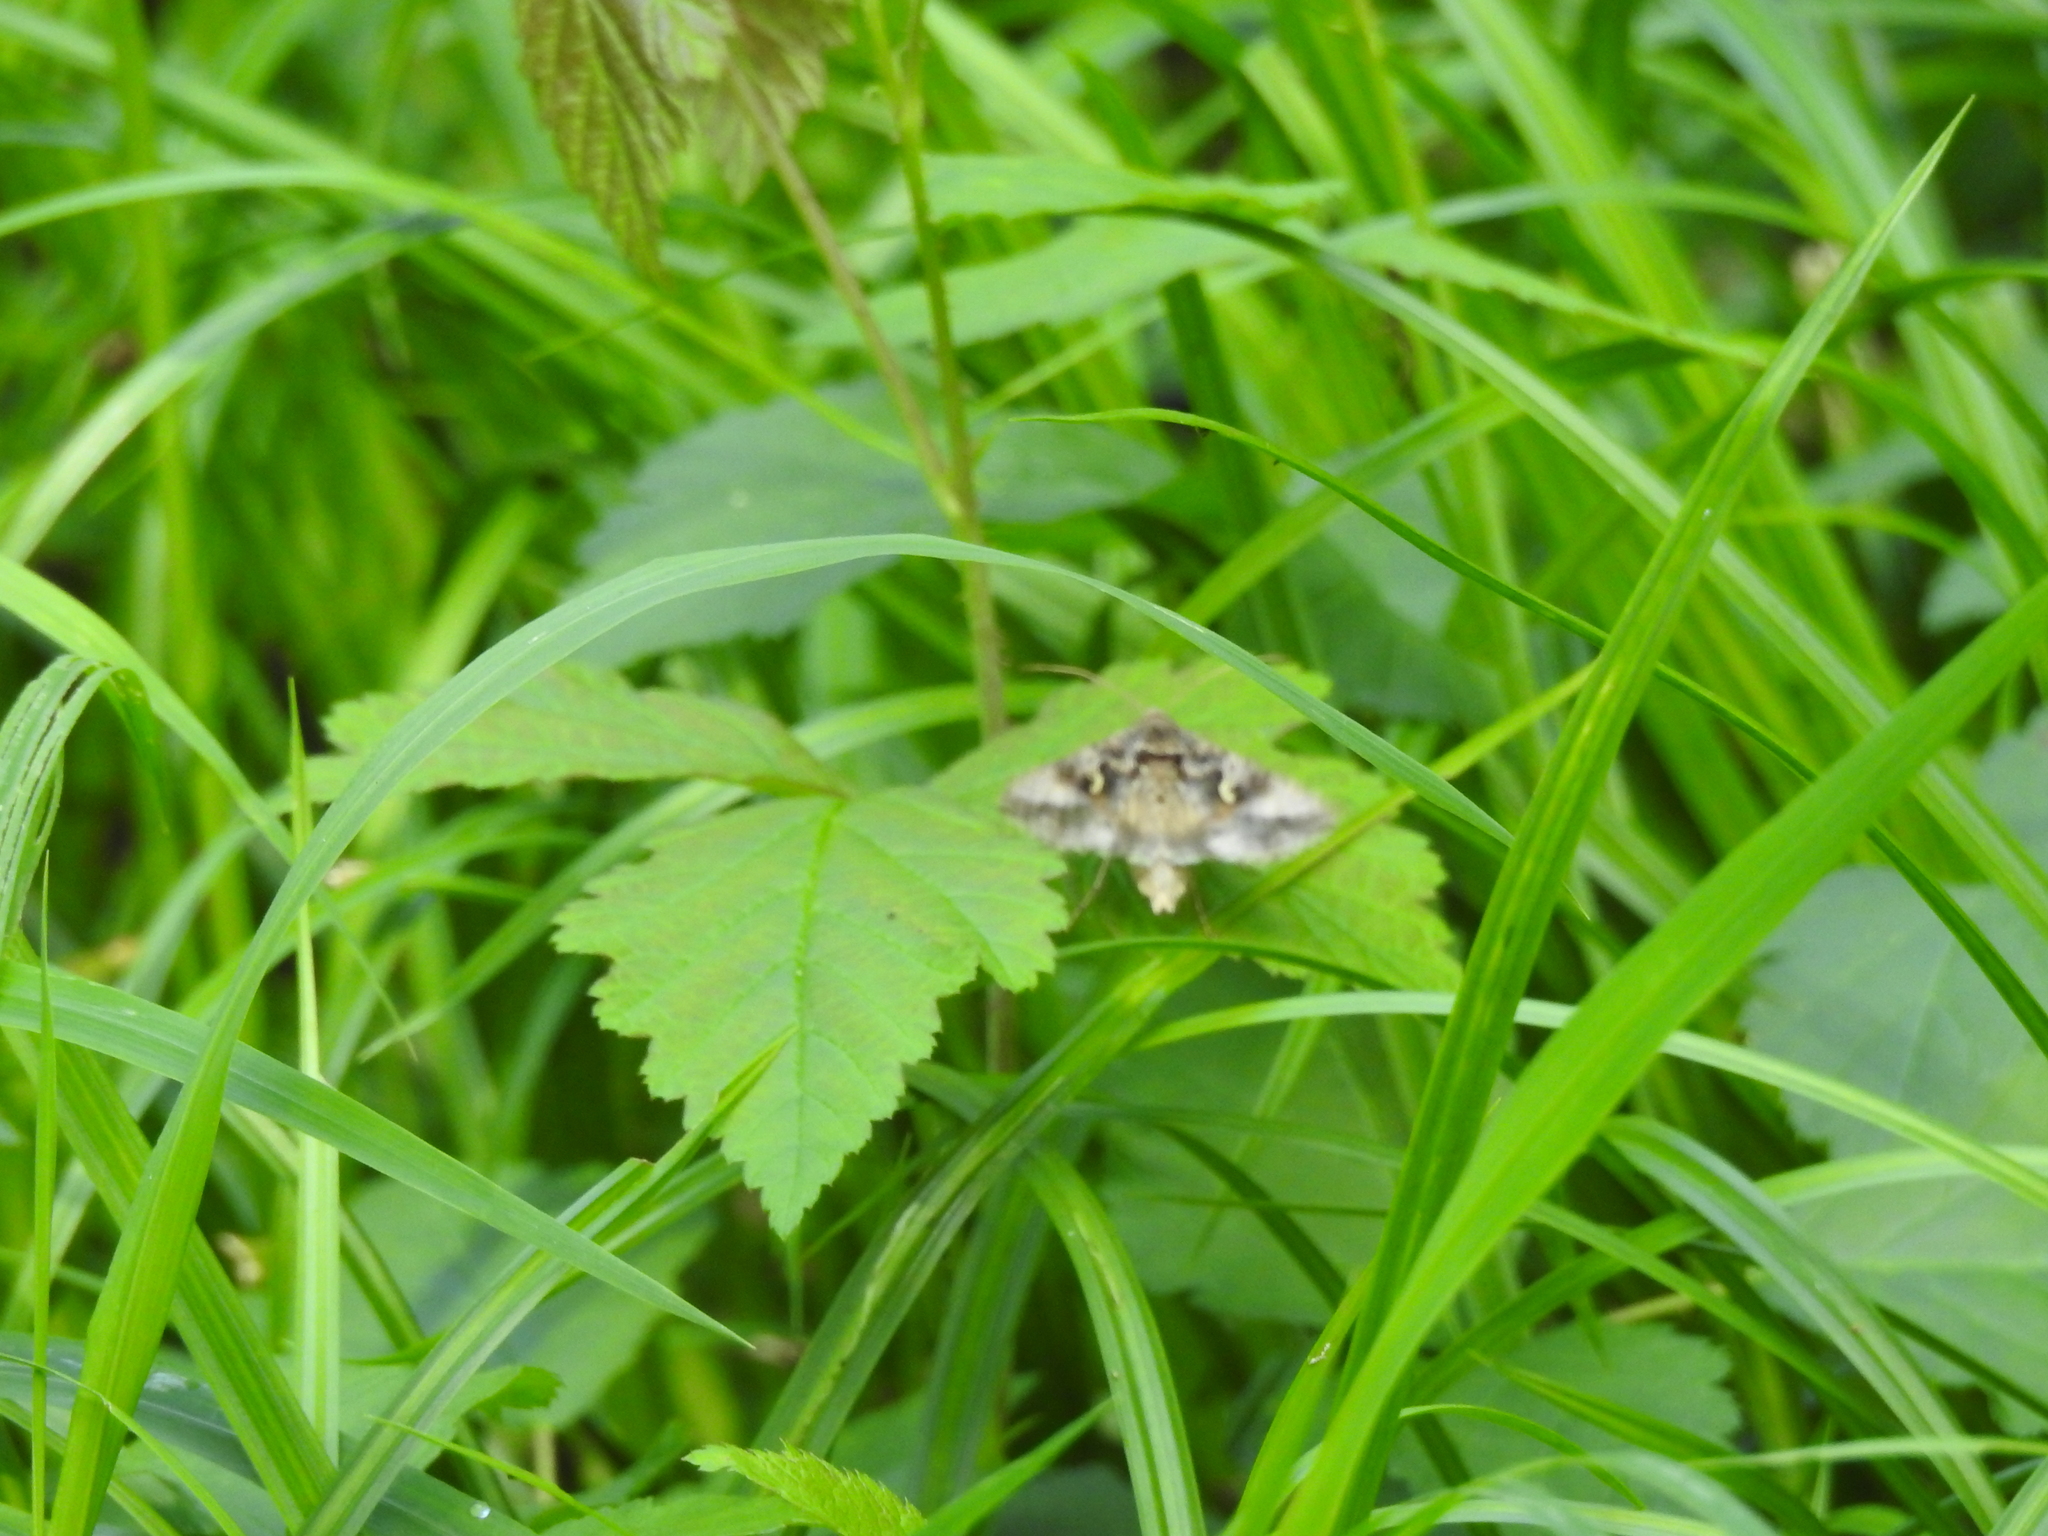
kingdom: Animalia
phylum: Arthropoda
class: Insecta
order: Lepidoptera
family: Noctuidae
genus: Autographa
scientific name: Autographa gamma
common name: Silver y
